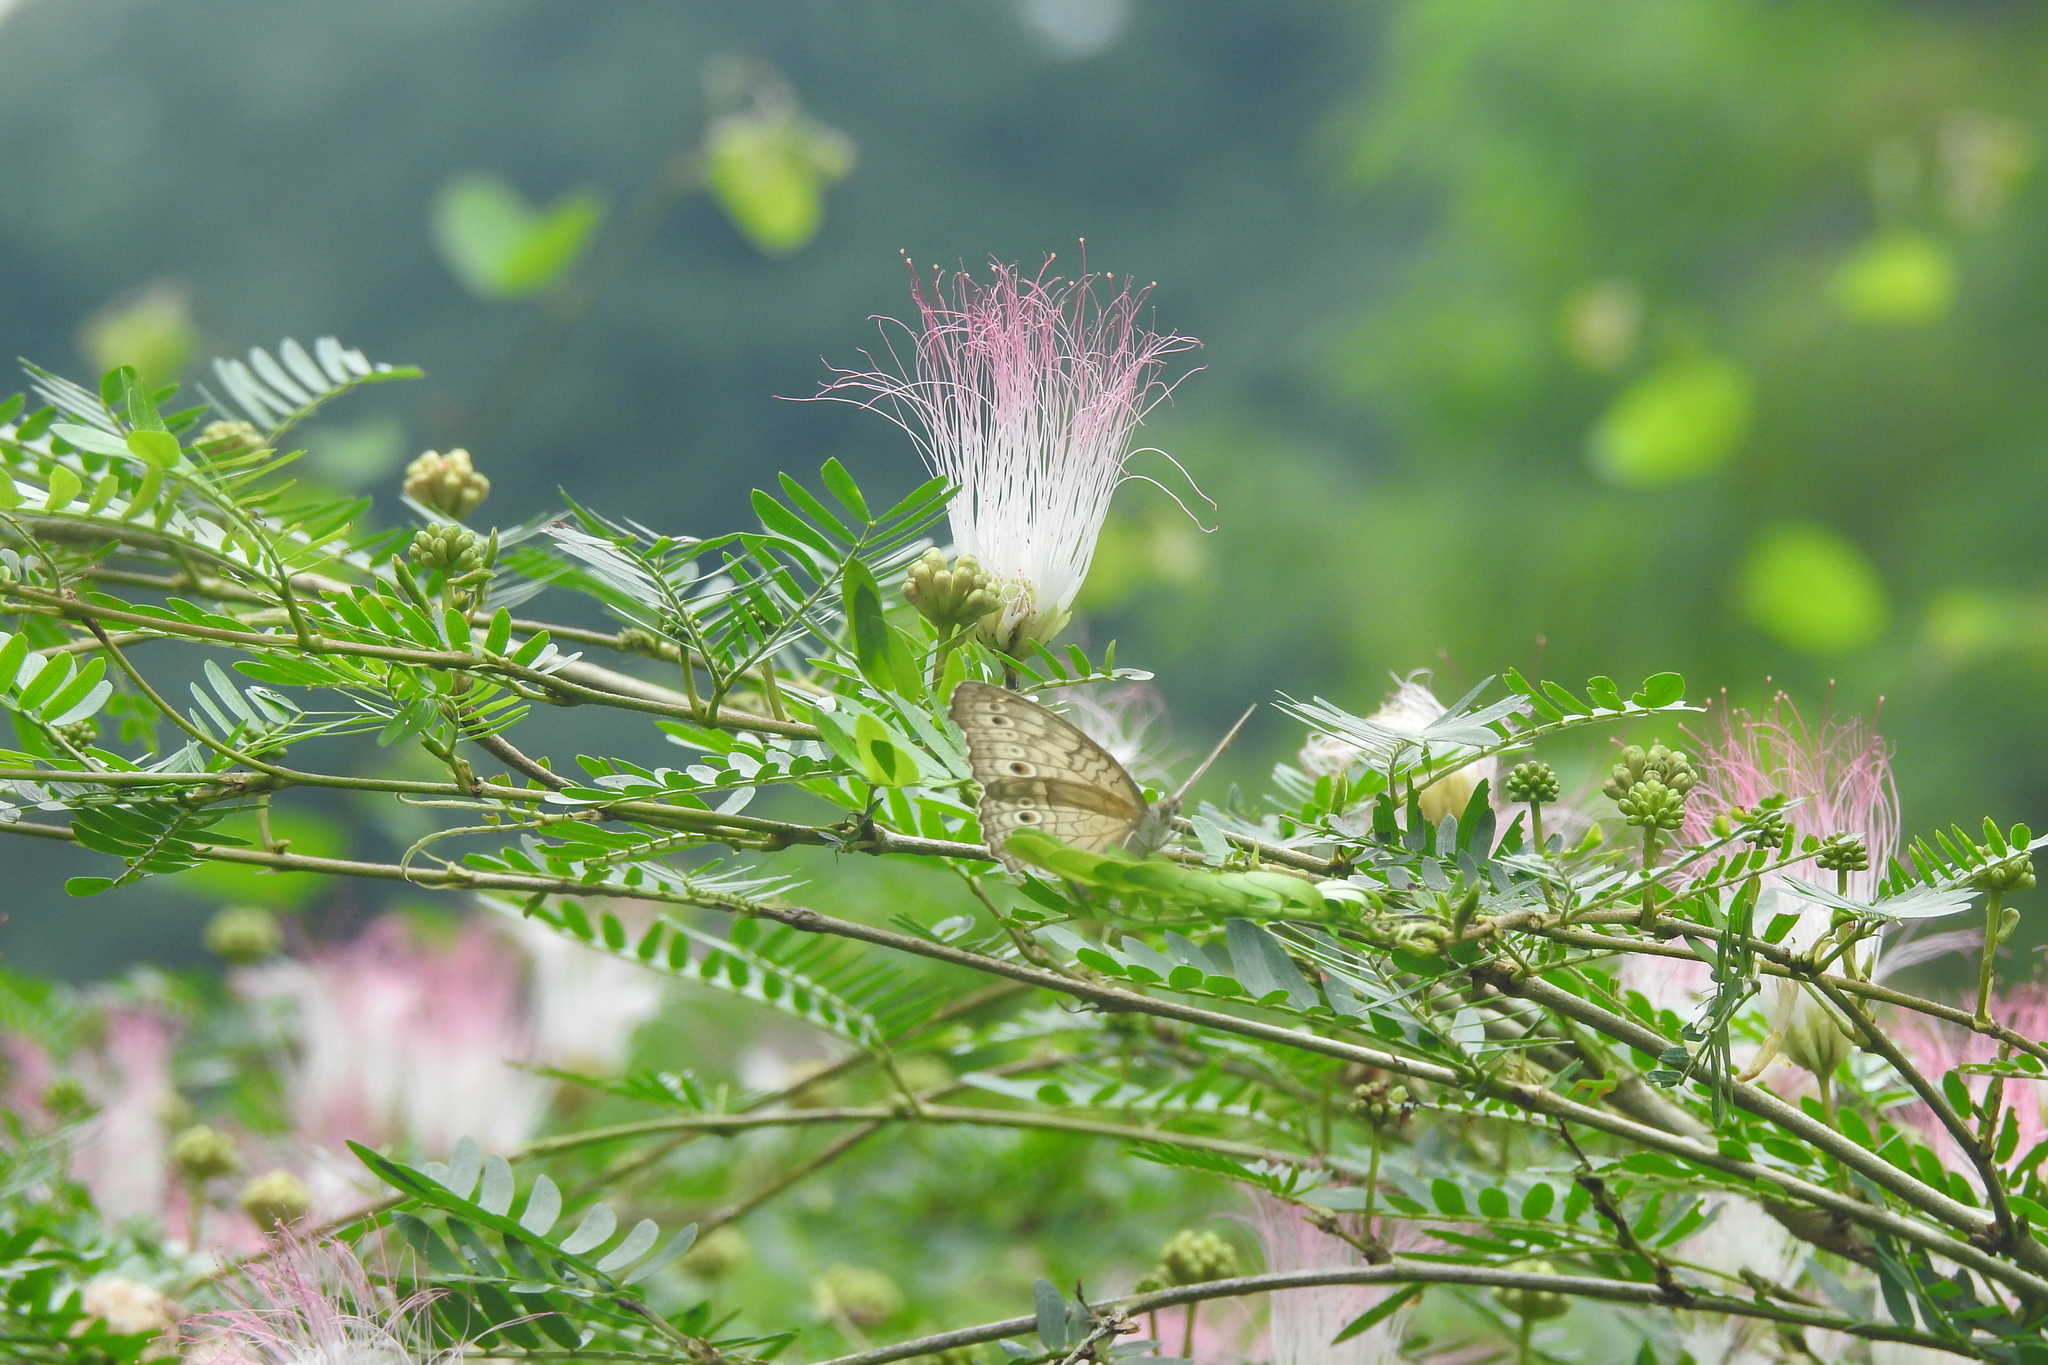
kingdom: Plantae
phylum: Tracheophyta
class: Magnoliopsida
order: Fabales
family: Fabaceae
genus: Calliandra
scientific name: Calliandra surinamensis
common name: Pink powder puff
